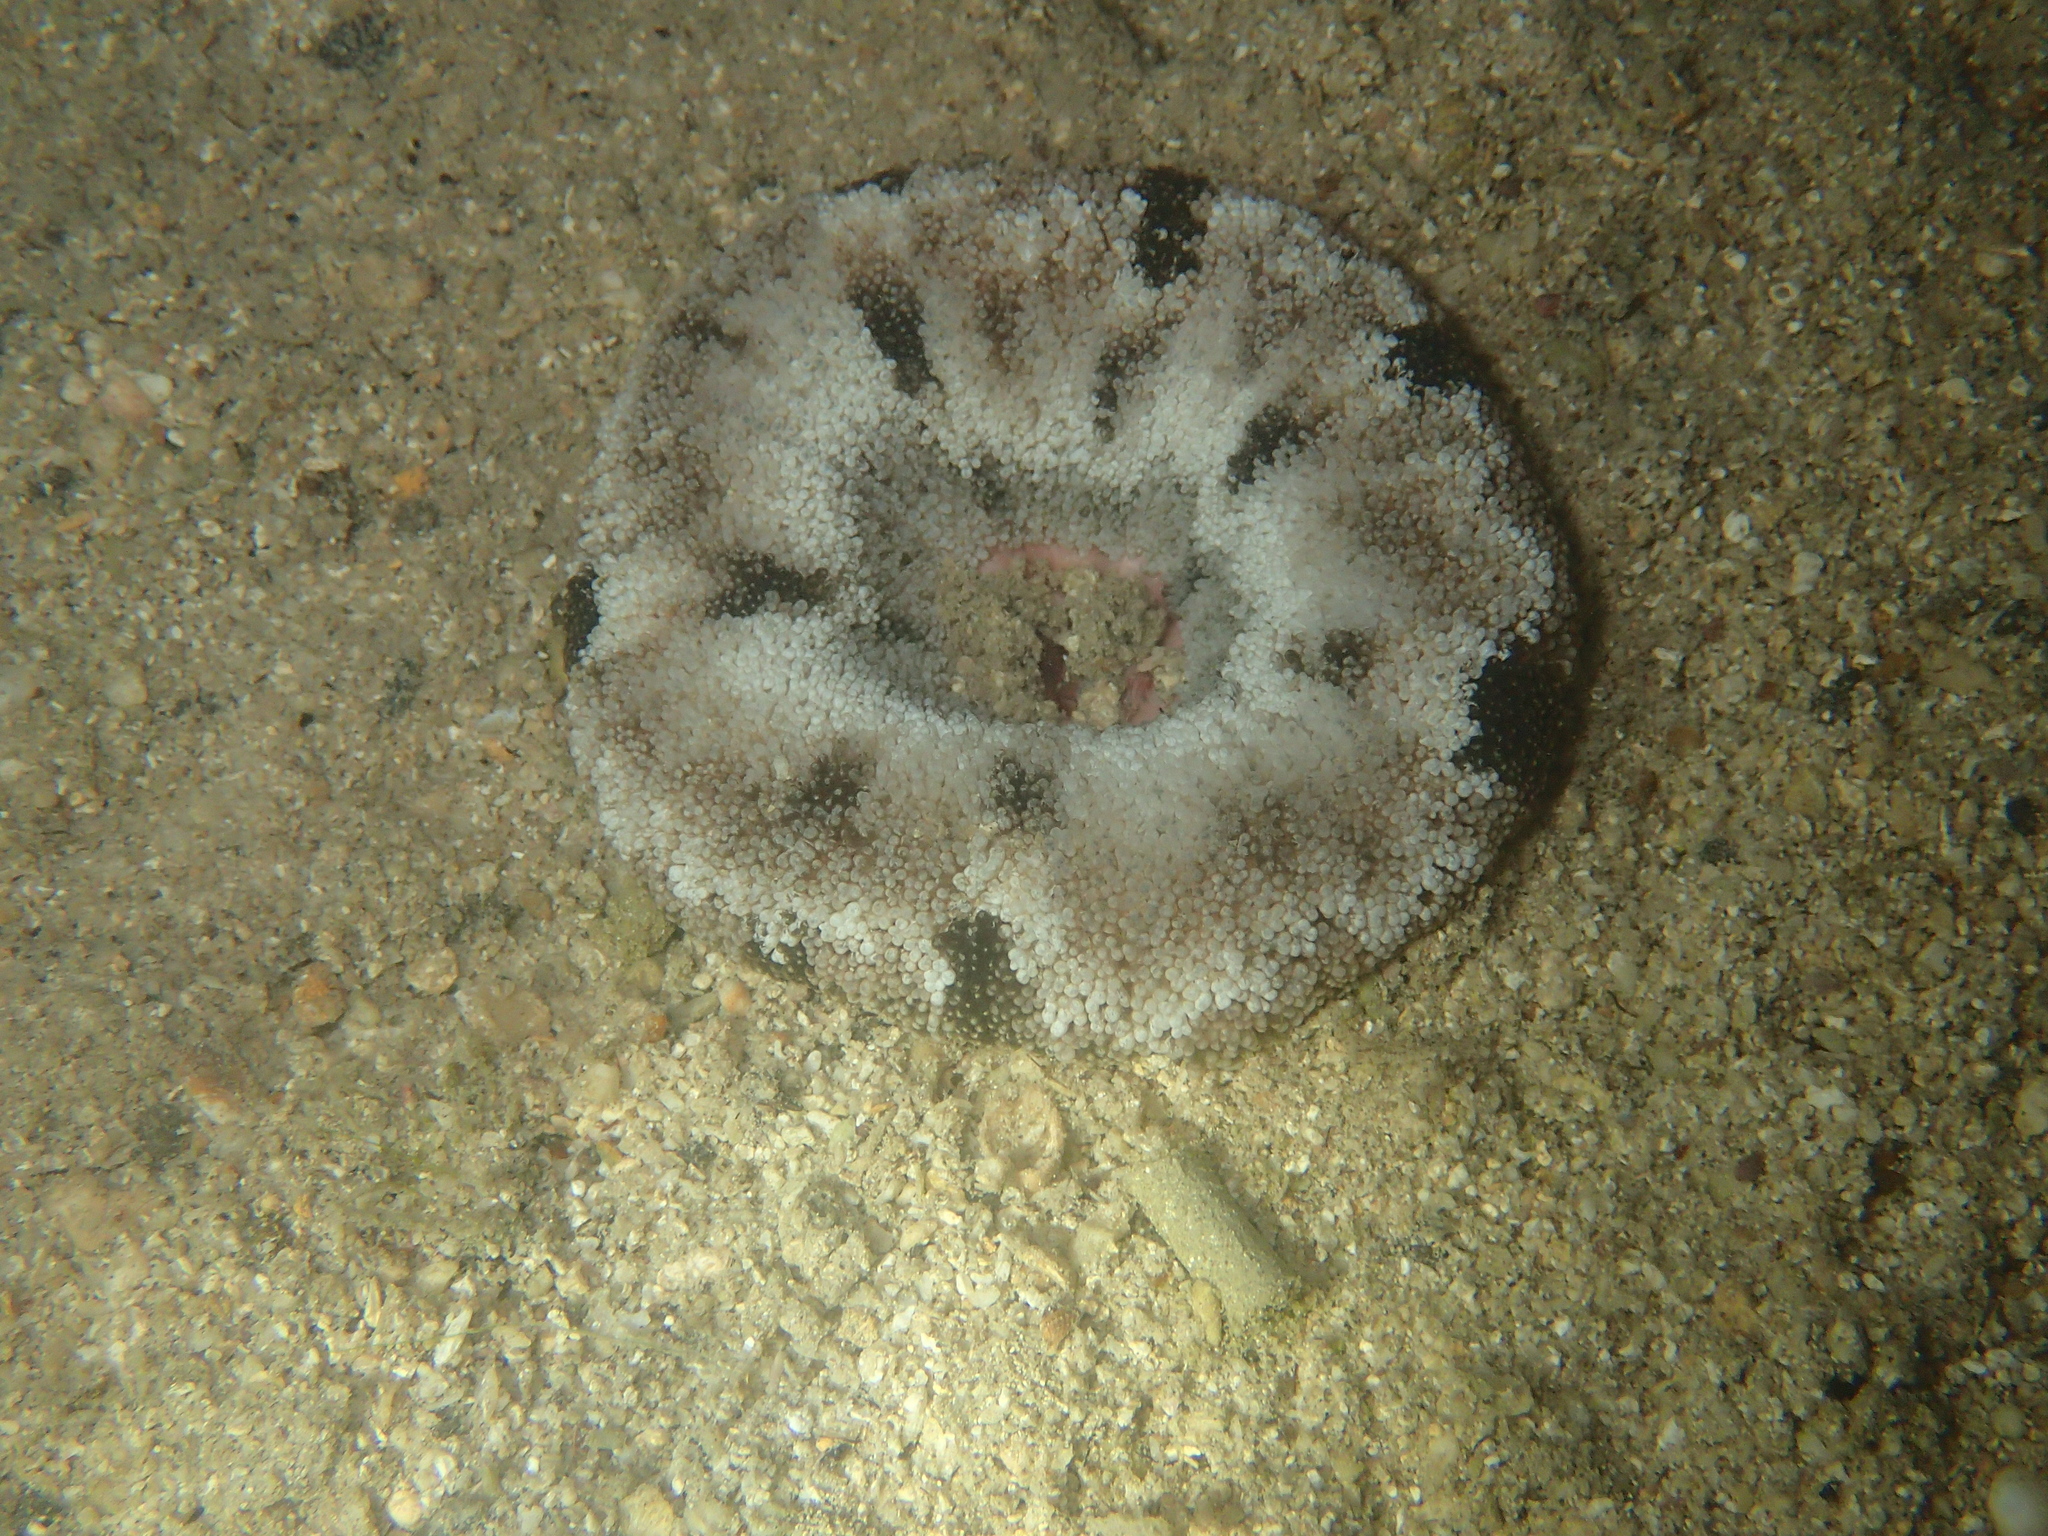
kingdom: Animalia
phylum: Cnidaria
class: Anthozoa
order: Actiniaria
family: Capneidae
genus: Actinoporus
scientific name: Actinoporus elongatus
